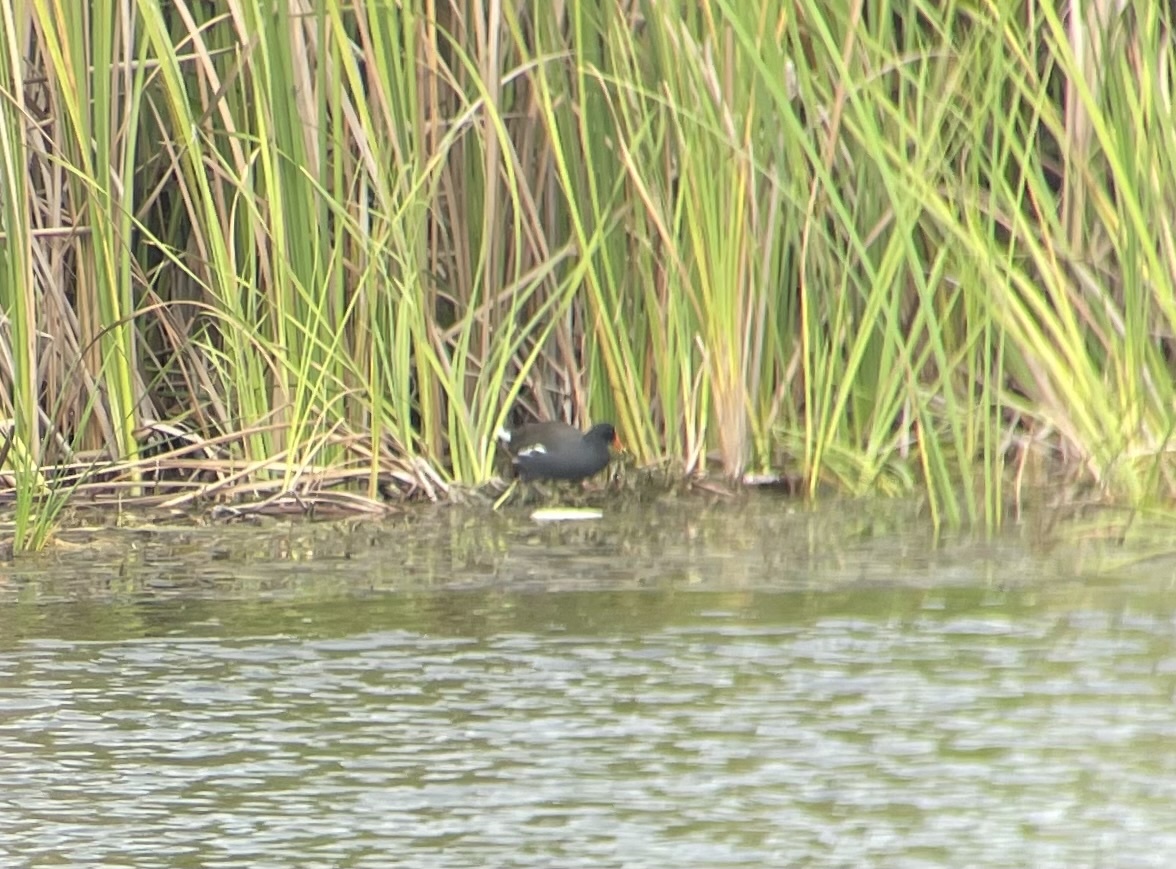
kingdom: Animalia
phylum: Chordata
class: Aves
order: Gruiformes
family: Rallidae
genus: Gallinula
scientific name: Gallinula chloropus
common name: Common moorhen
